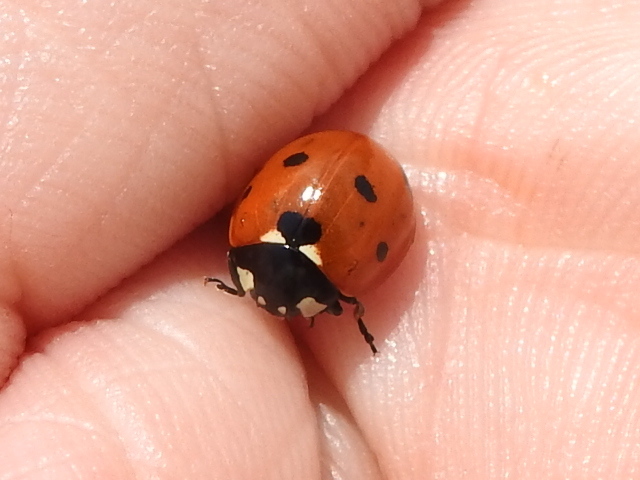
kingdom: Animalia
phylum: Arthropoda
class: Insecta
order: Coleoptera
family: Coccinellidae
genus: Coccinella
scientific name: Coccinella septempunctata
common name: Sevenspotted lady beetle
